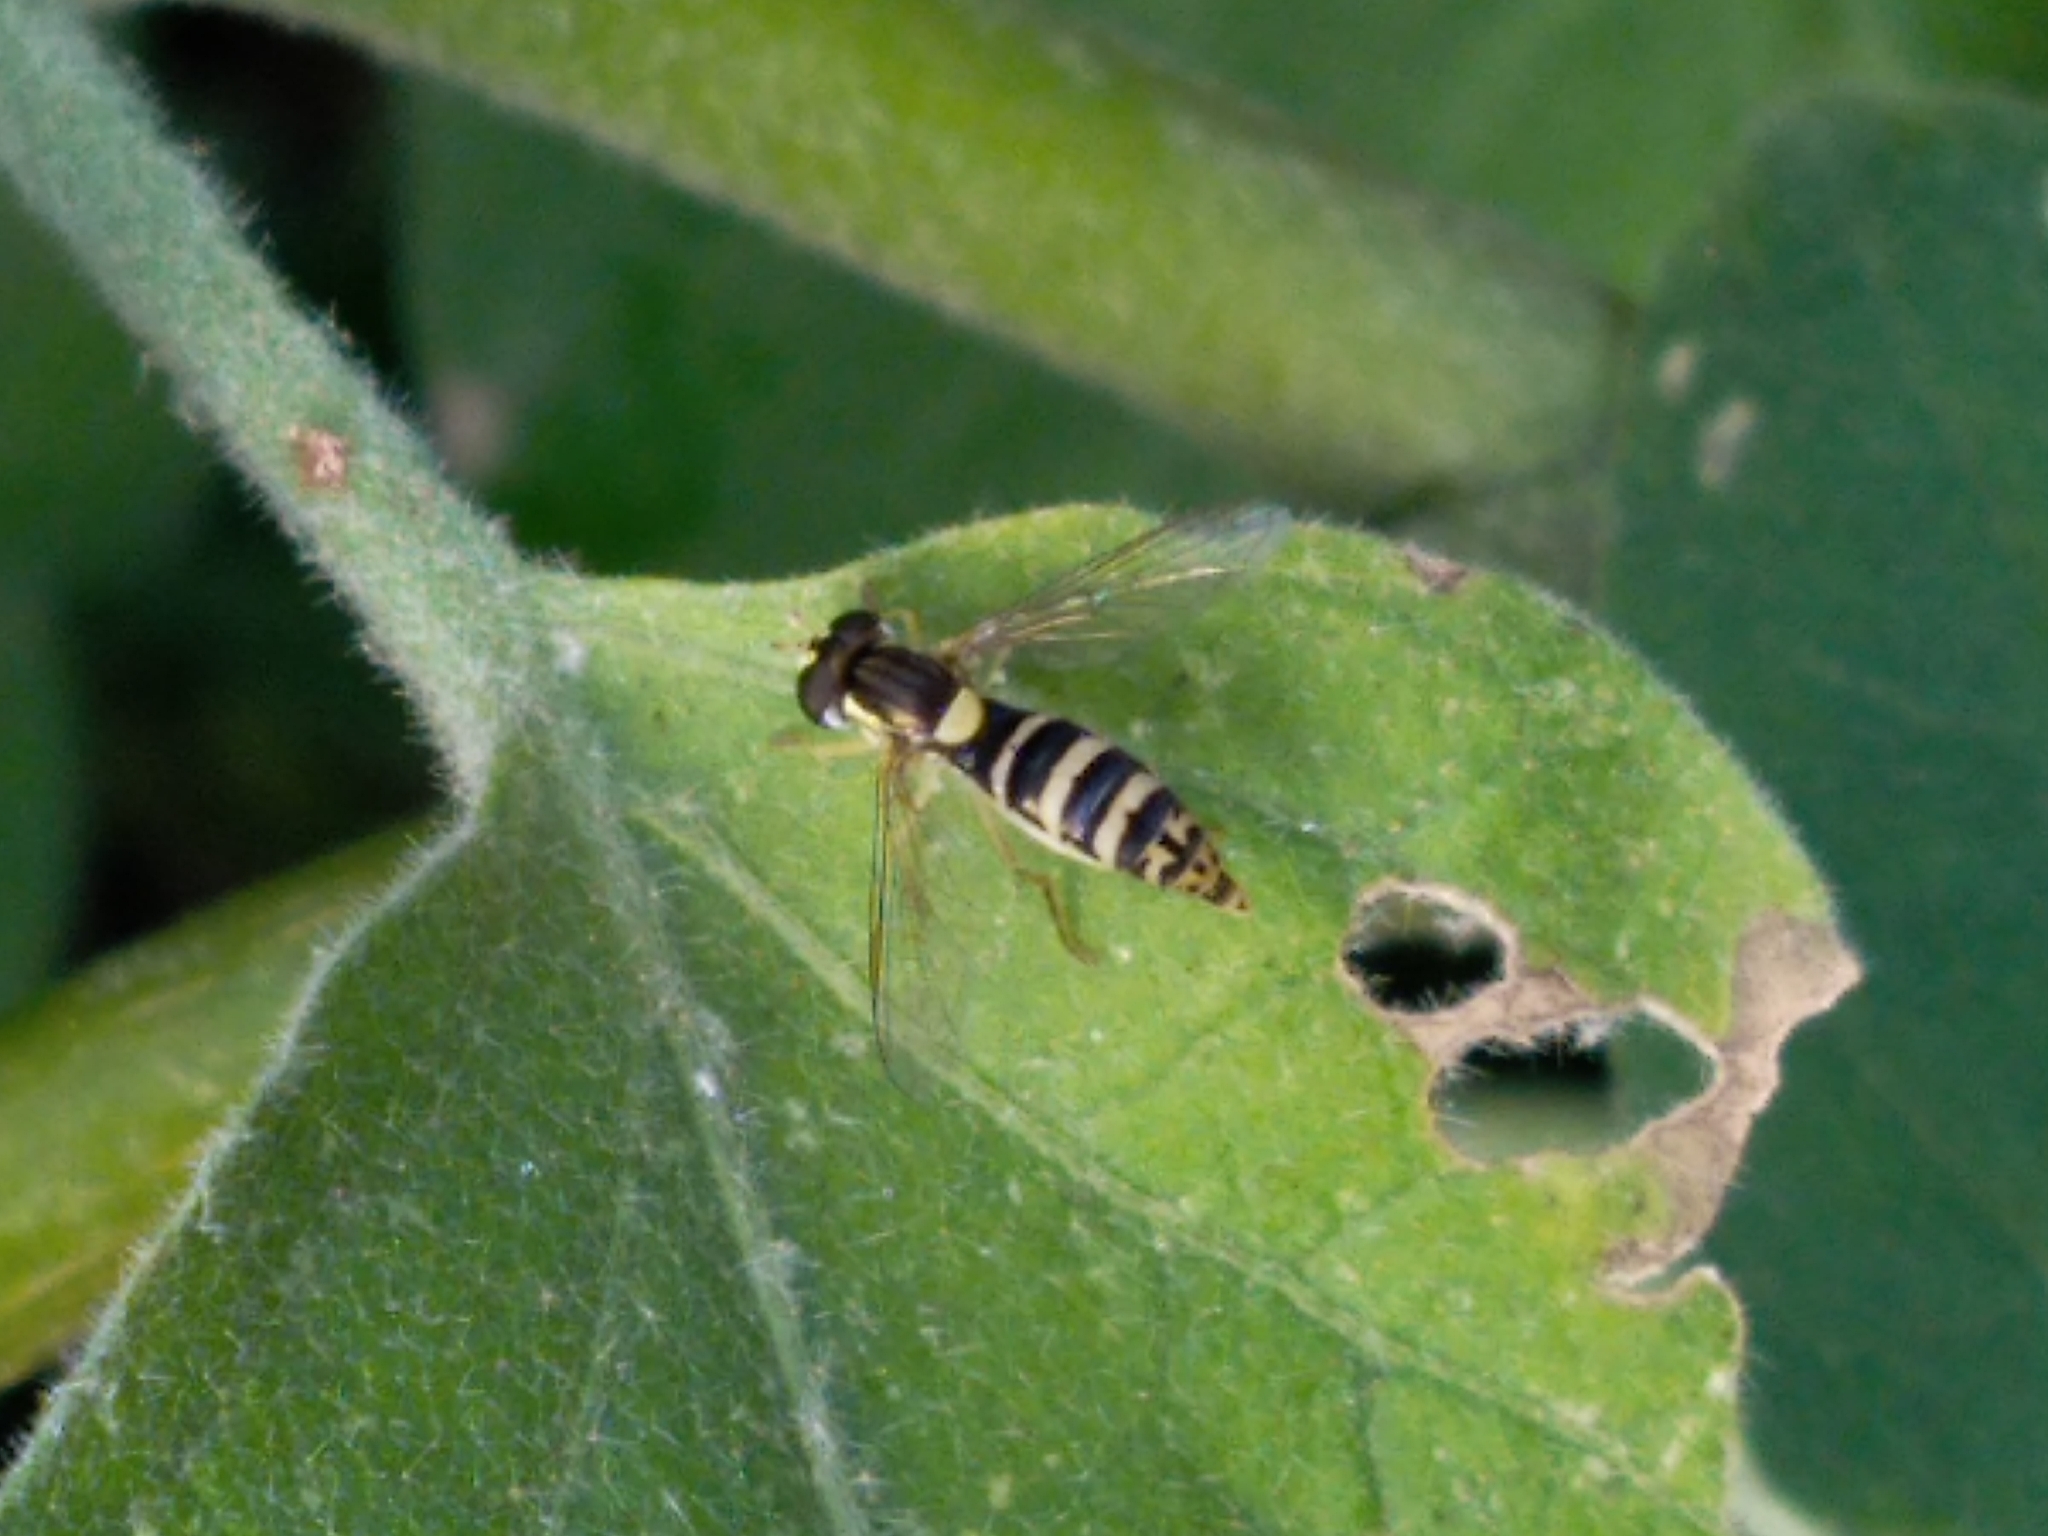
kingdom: Animalia
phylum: Arthropoda
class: Insecta
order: Diptera
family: Syrphidae
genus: Sphaerophoria
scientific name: Sphaerophoria
